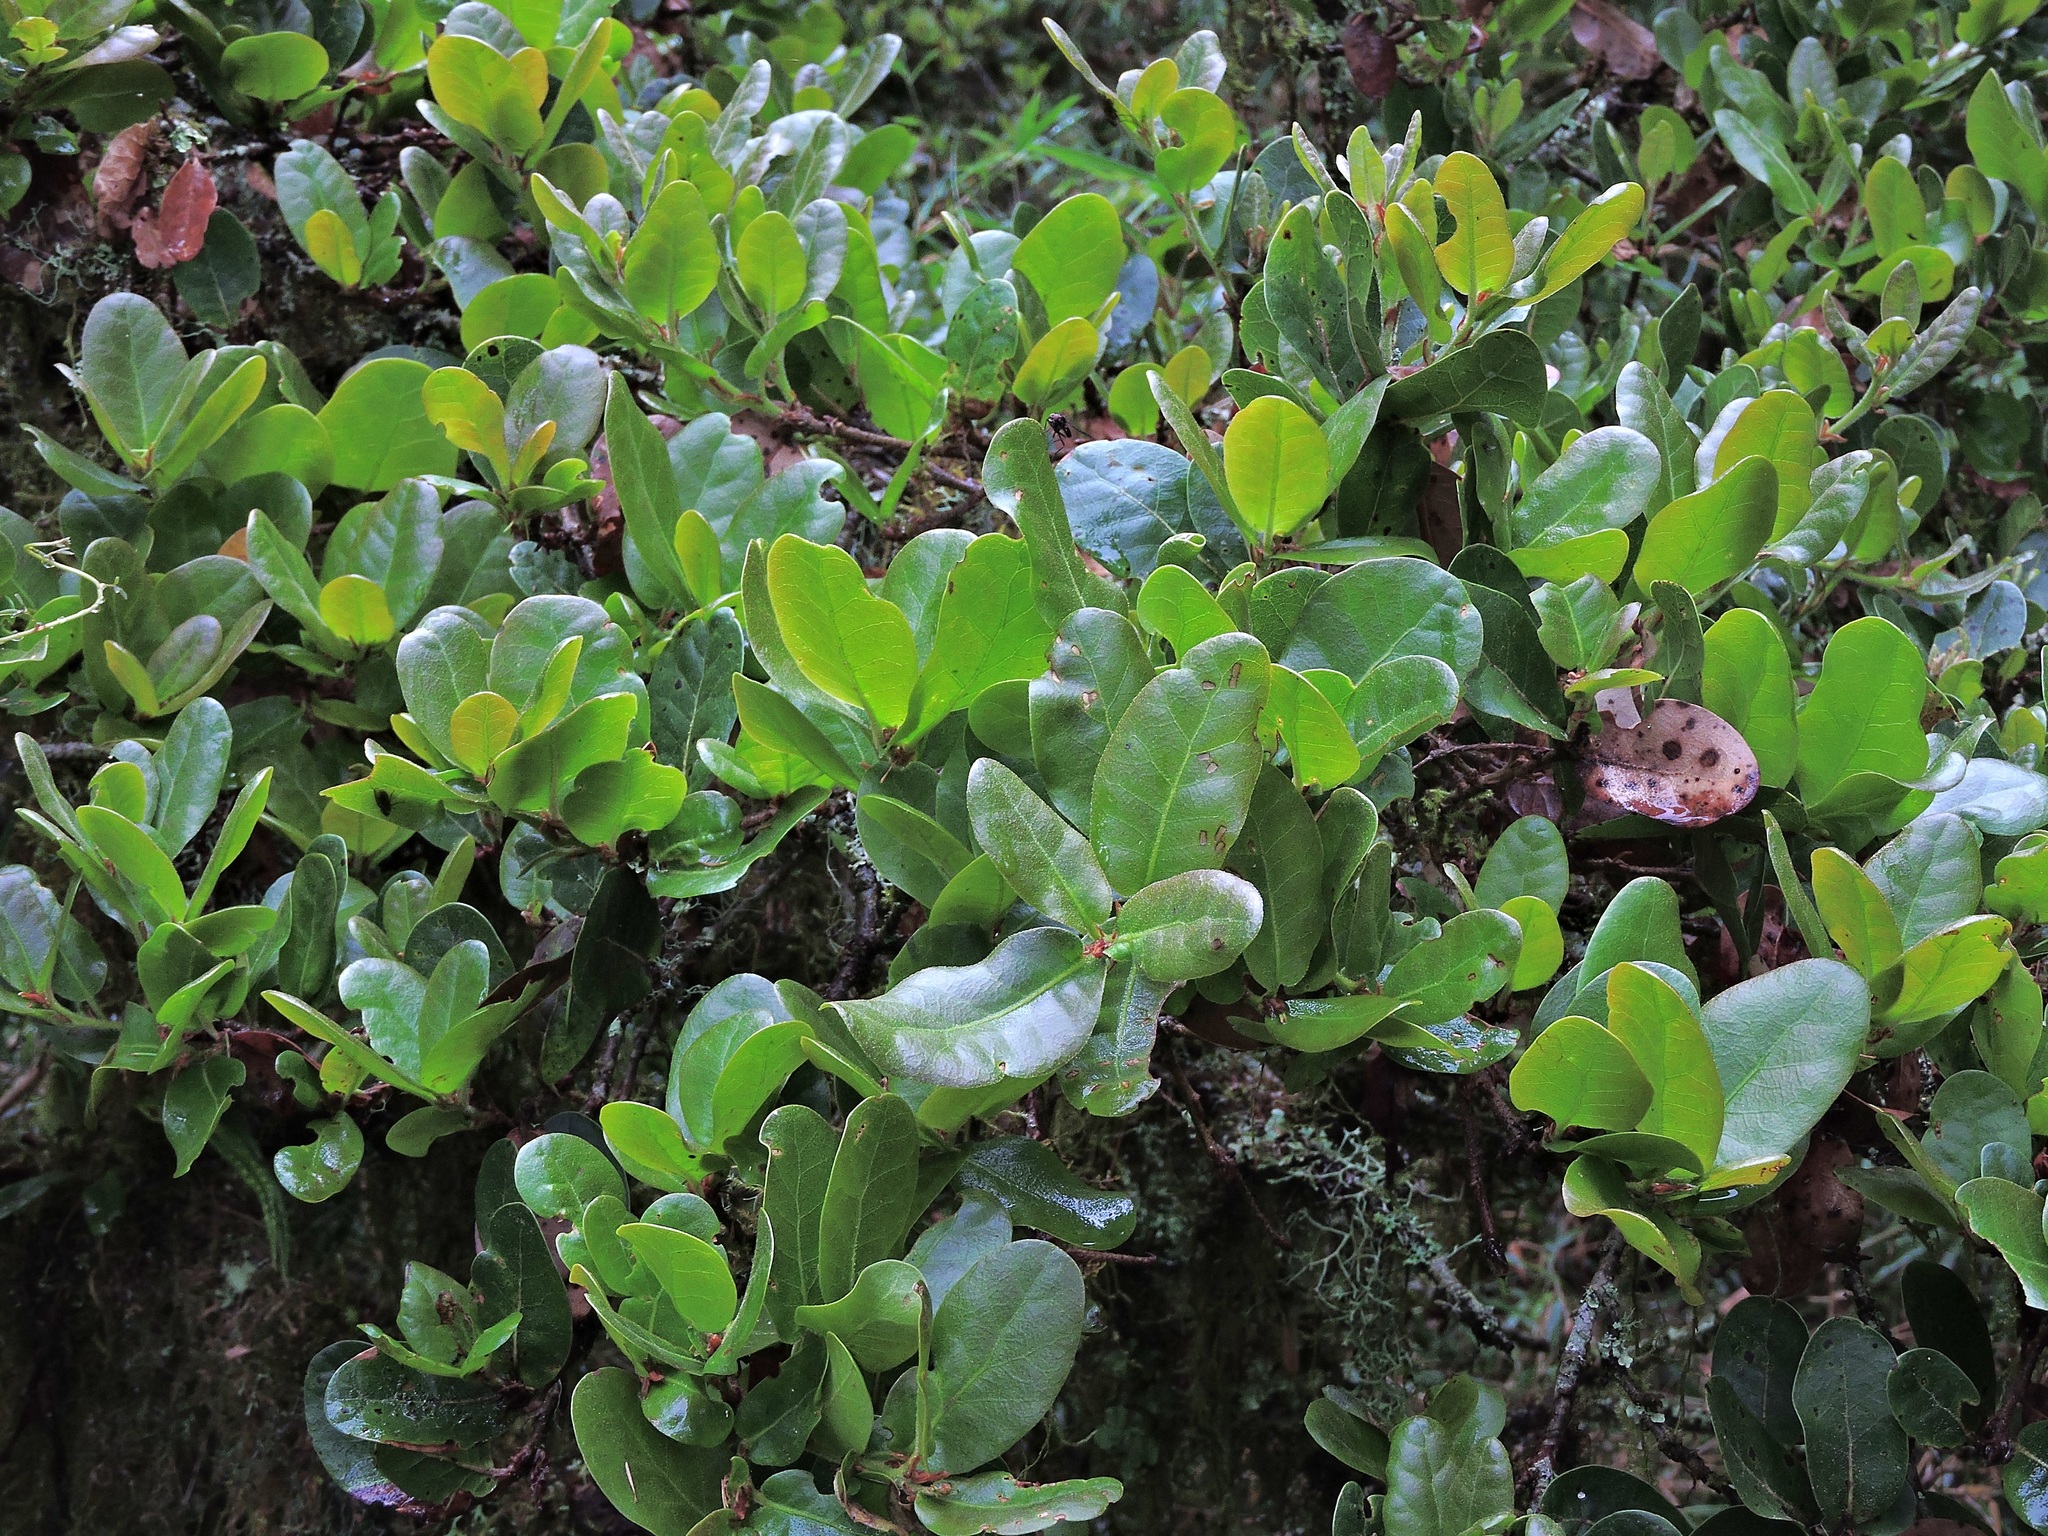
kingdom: Plantae
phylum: Tracheophyta
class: Magnoliopsida
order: Fagales
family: Fagaceae
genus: Quercus
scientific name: Quercus spinosa
